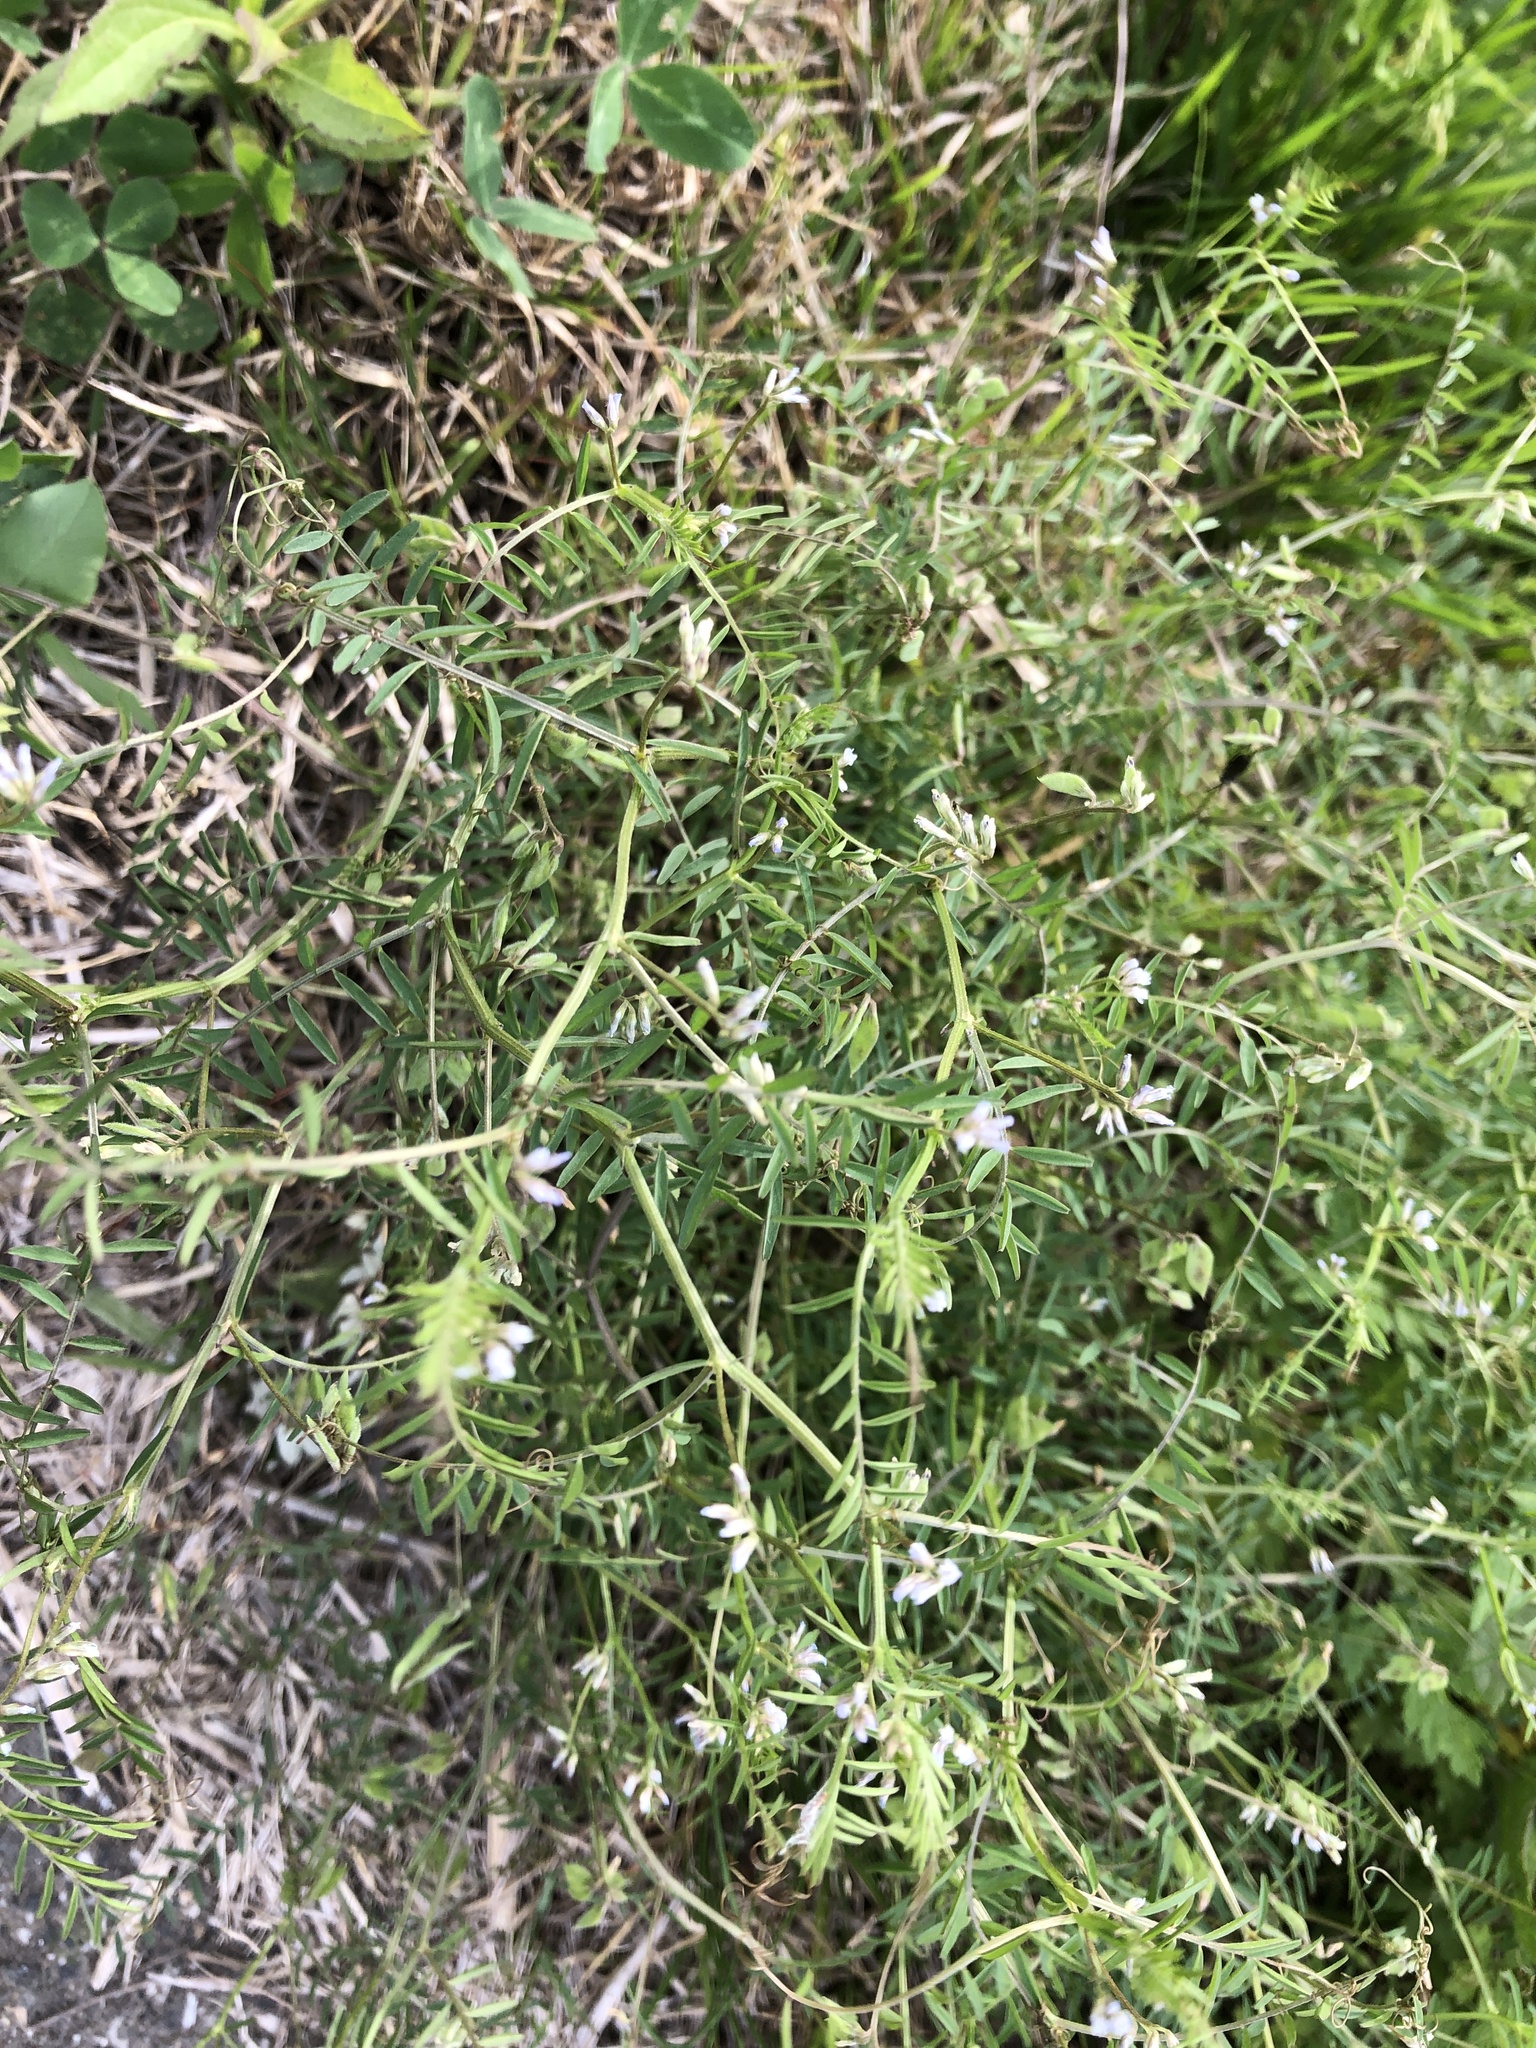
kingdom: Plantae
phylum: Tracheophyta
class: Magnoliopsida
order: Fabales
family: Fabaceae
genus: Vicia
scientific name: Vicia hirsuta
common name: Tiny vetch
